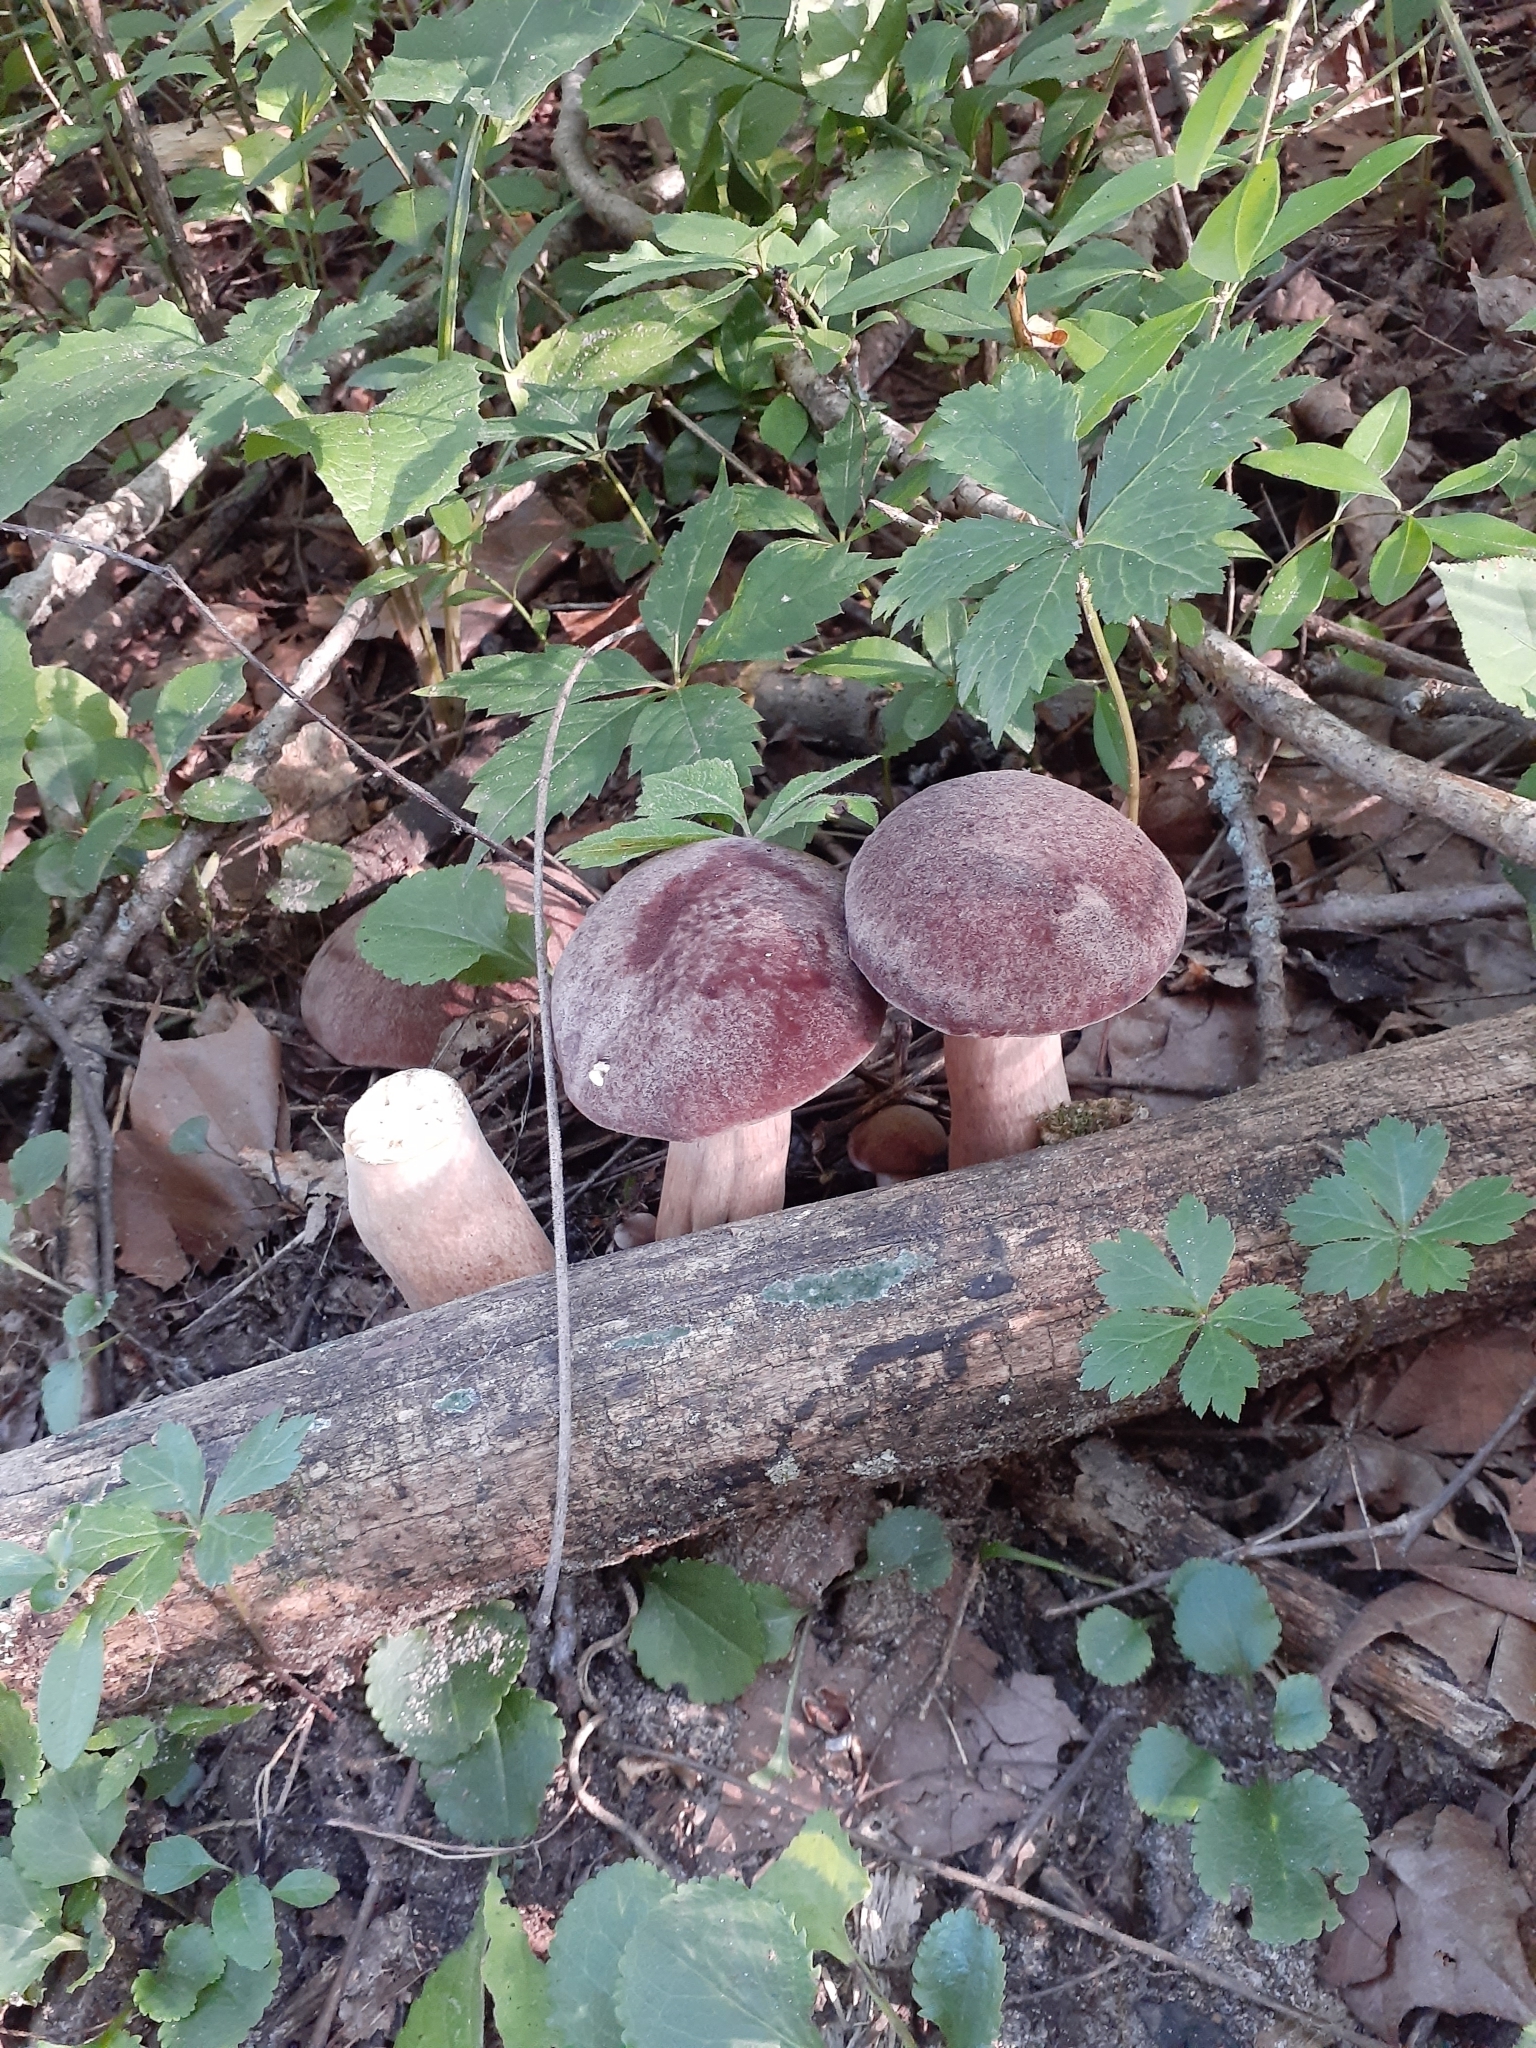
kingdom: Fungi
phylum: Basidiomycota
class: Agaricomycetes
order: Boletales
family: Boletaceae
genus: Tylopilus
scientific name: Tylopilus rubrobrunneus
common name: Reddish brown bitter bolete
